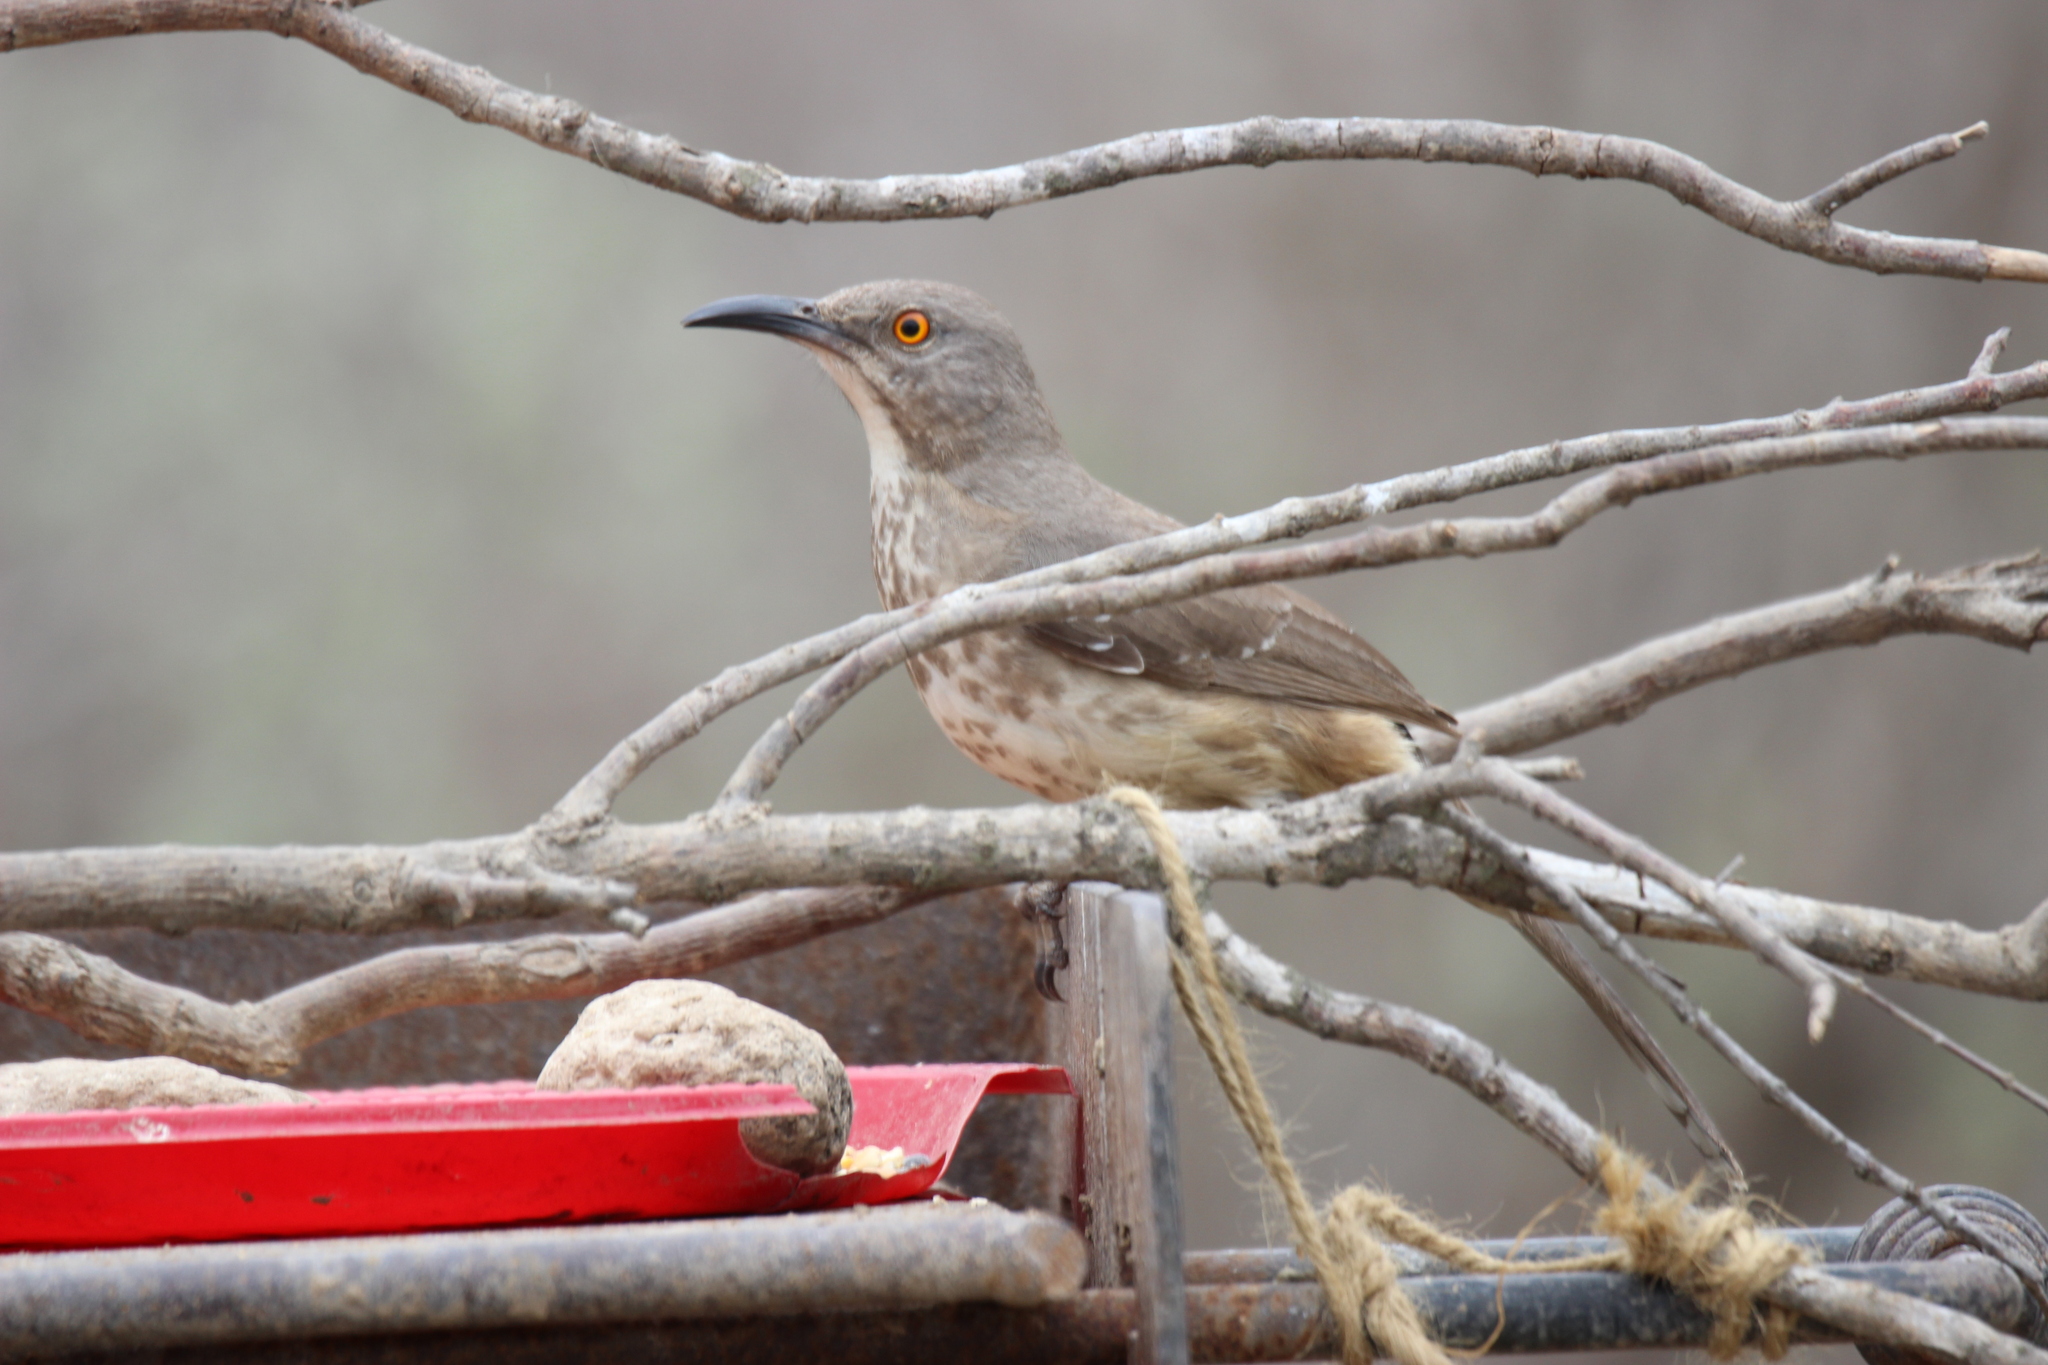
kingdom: Animalia
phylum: Chordata
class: Aves
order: Passeriformes
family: Mimidae
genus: Toxostoma
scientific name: Toxostoma curvirostre
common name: Curve-billed thrasher
